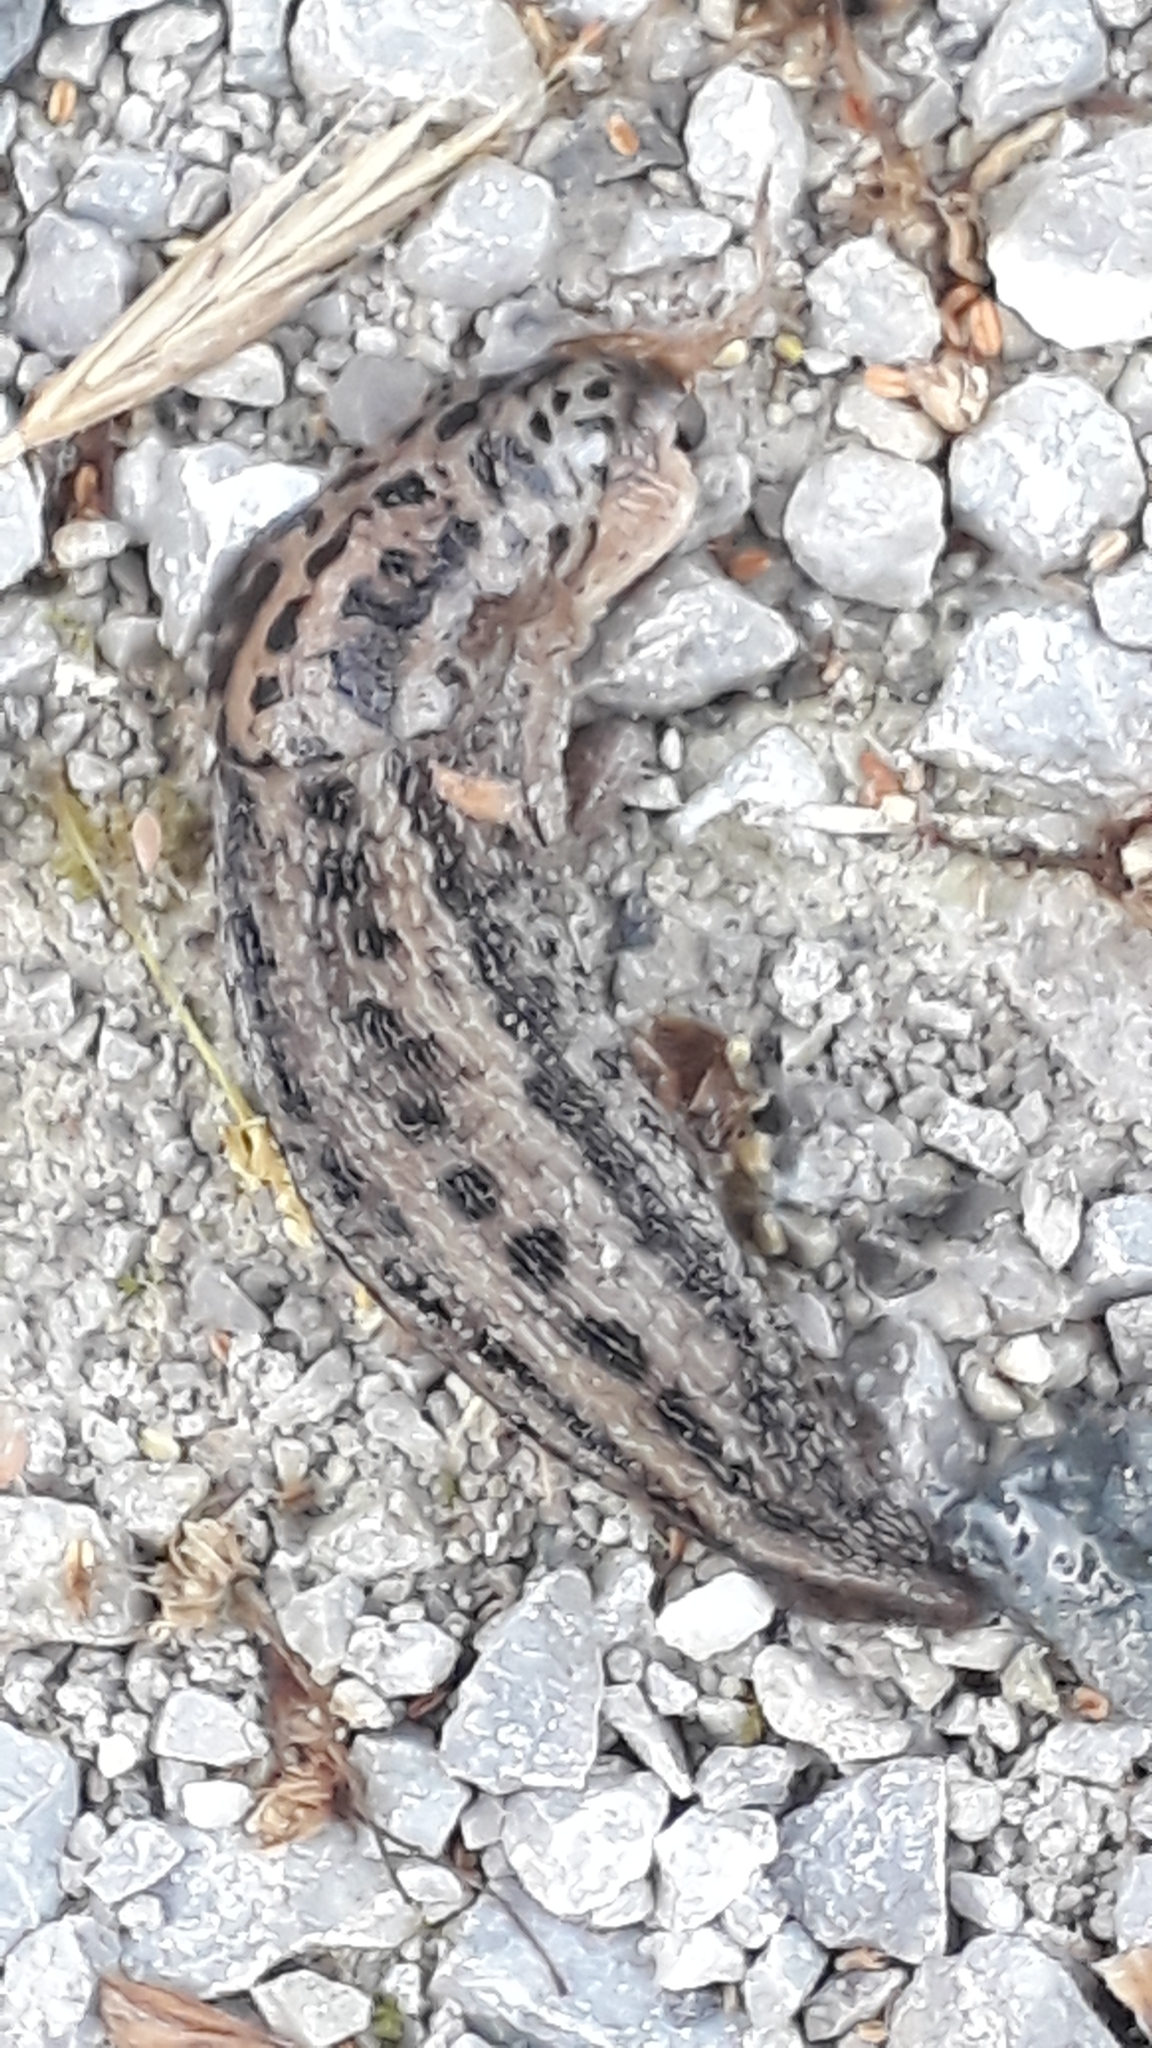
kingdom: Animalia
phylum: Mollusca
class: Gastropoda
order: Stylommatophora
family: Limacidae
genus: Limax
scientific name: Limax maximus
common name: Great grey slug
